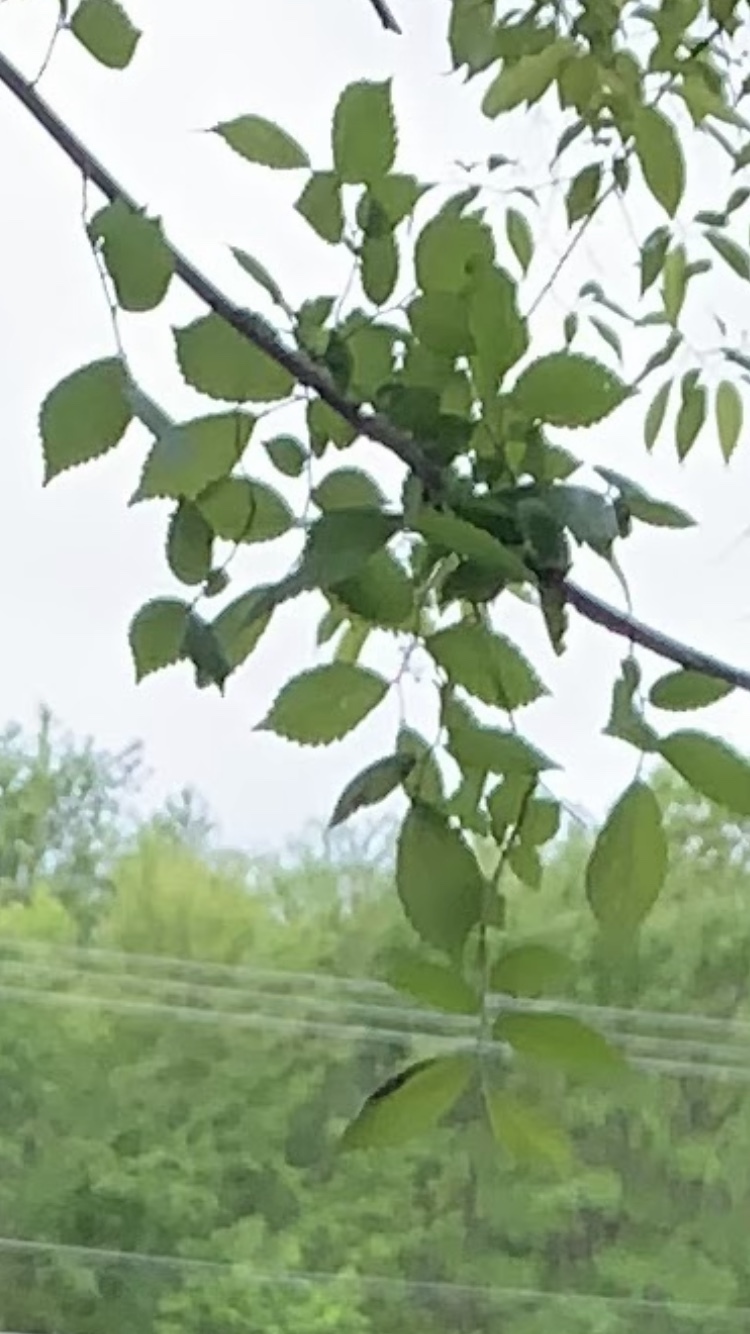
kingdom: Plantae
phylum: Tracheophyta
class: Magnoliopsida
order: Rosales
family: Ulmaceae
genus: Ulmus
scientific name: Ulmus americana
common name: American elm
